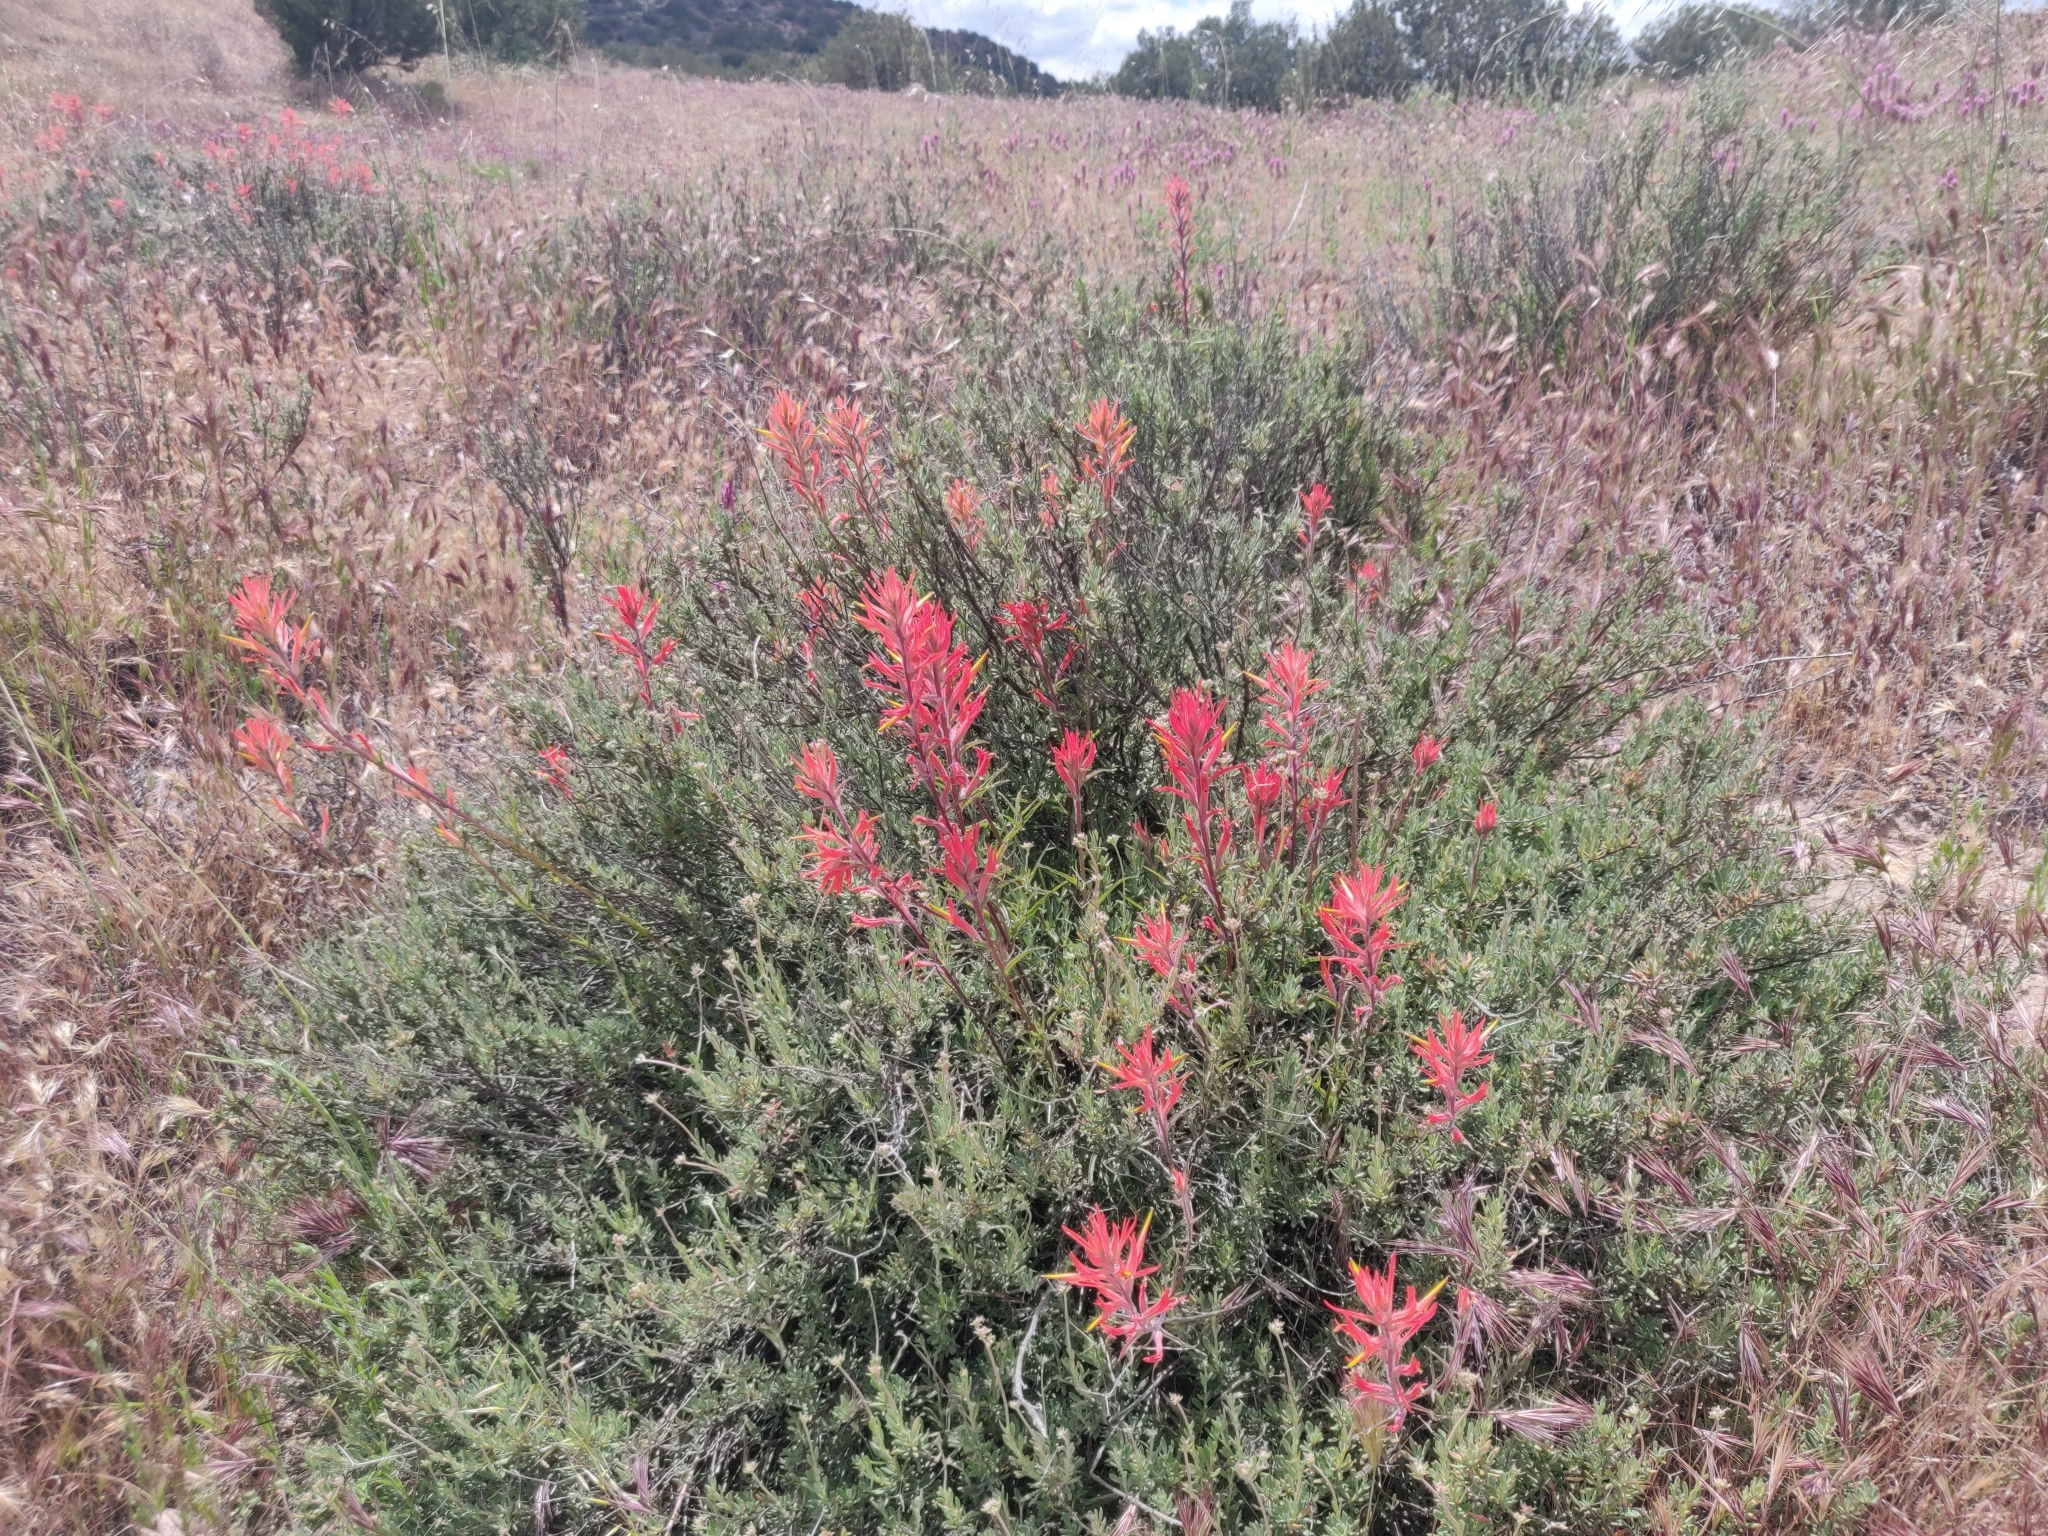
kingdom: Plantae
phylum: Tracheophyta
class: Magnoliopsida
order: Lamiales
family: Orobanchaceae
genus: Castilleja
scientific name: Castilleja subinclusa
